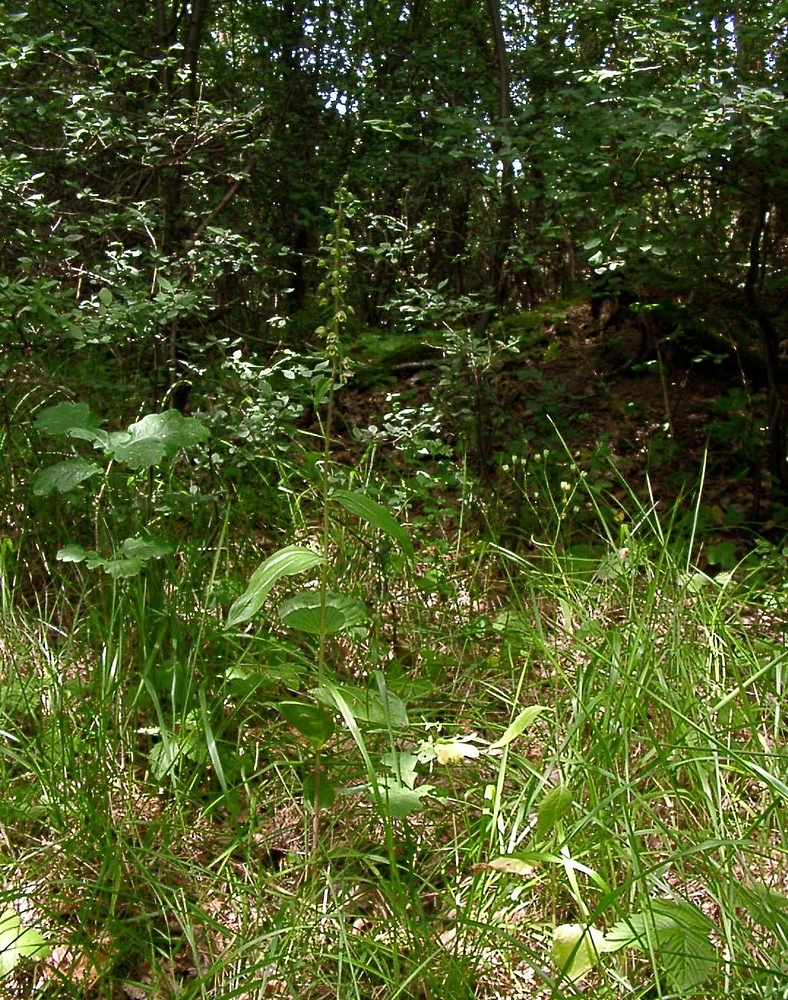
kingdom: Plantae
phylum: Tracheophyta
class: Liliopsida
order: Asparagales
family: Orchidaceae
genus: Epipactis
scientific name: Epipactis helleborine
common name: Broad-leaved helleborine
